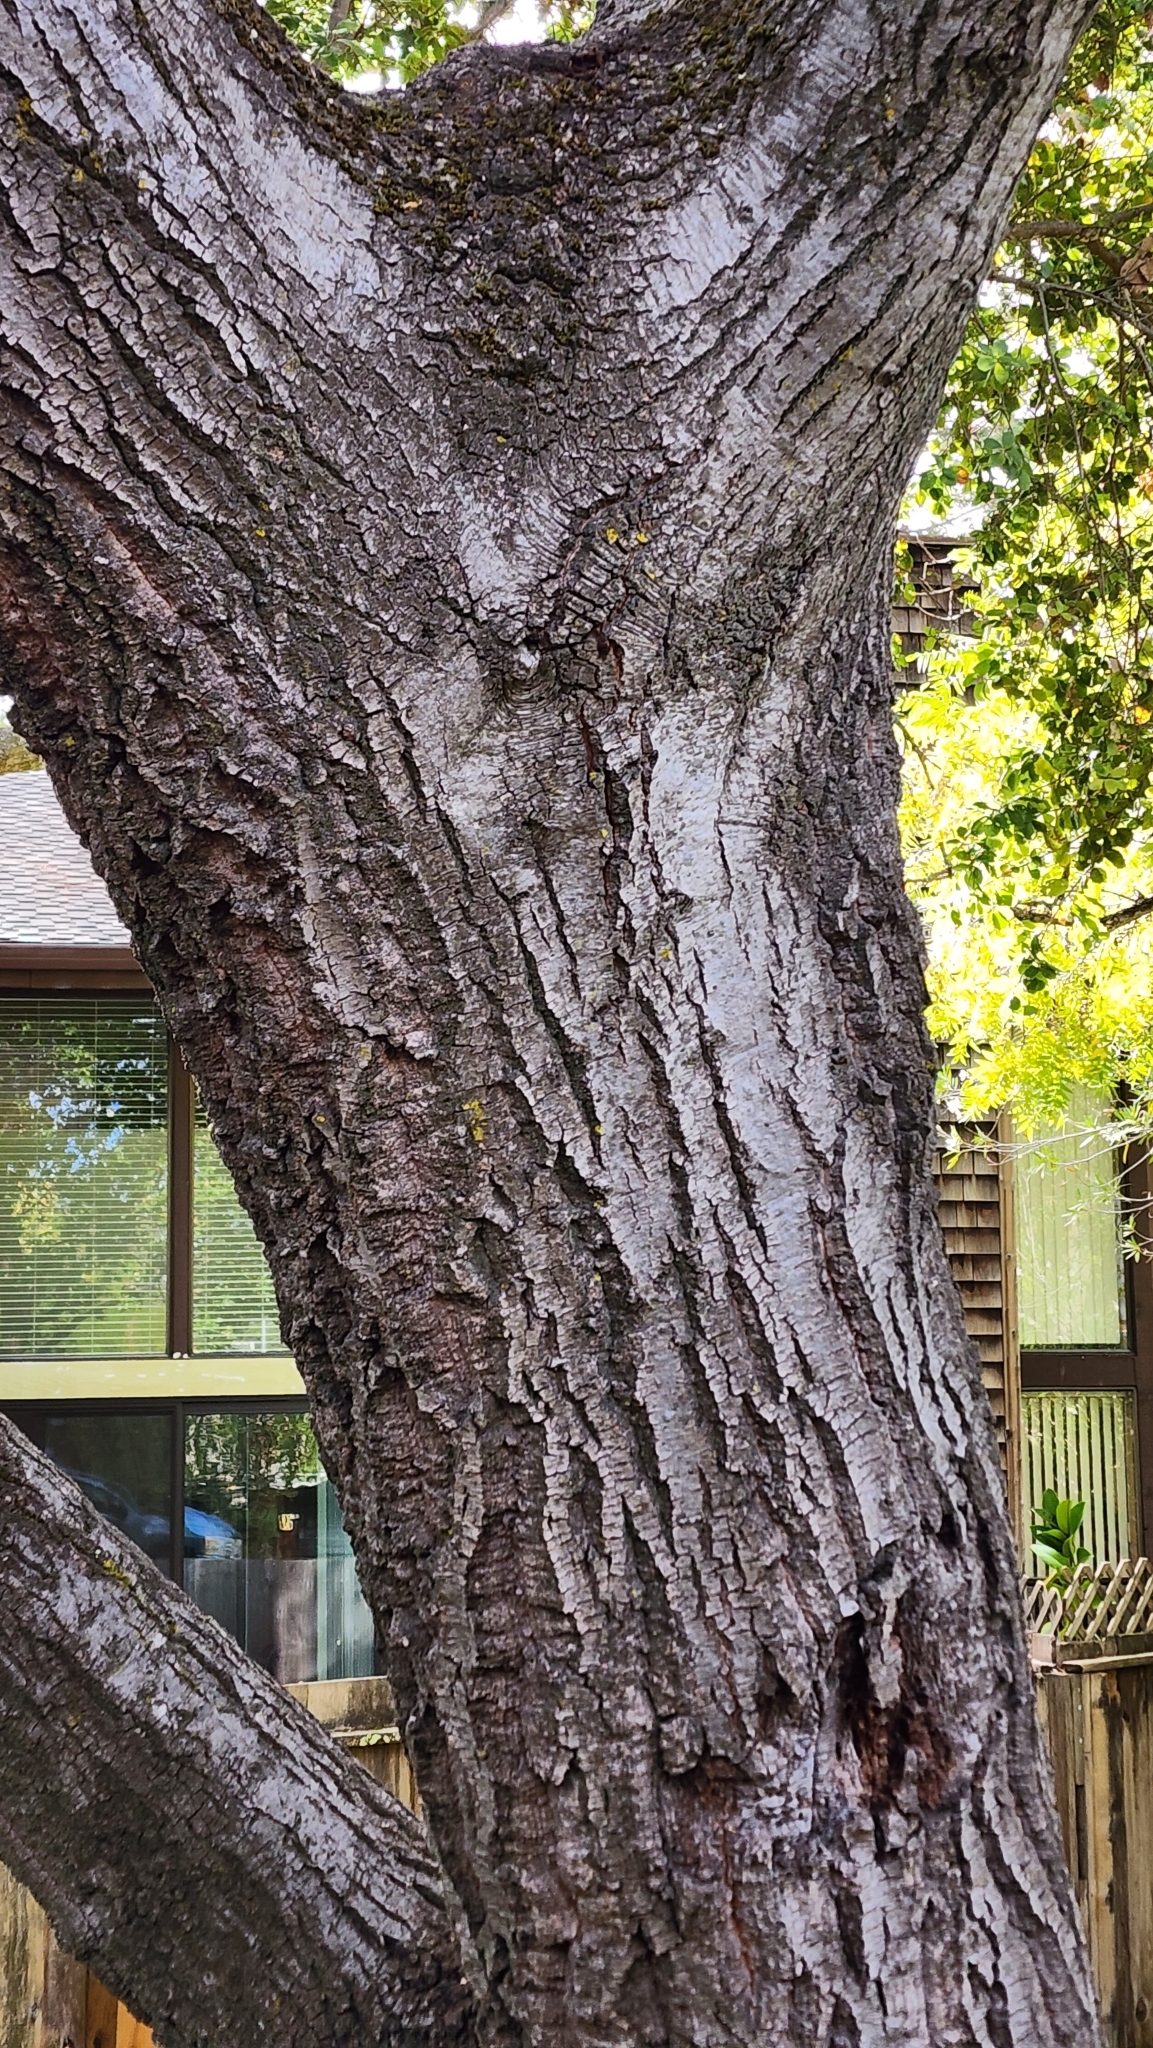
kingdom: Plantae
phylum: Tracheophyta
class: Magnoliopsida
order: Fagales
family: Fagaceae
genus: Quercus
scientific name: Quercus agrifolia
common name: California live oak
